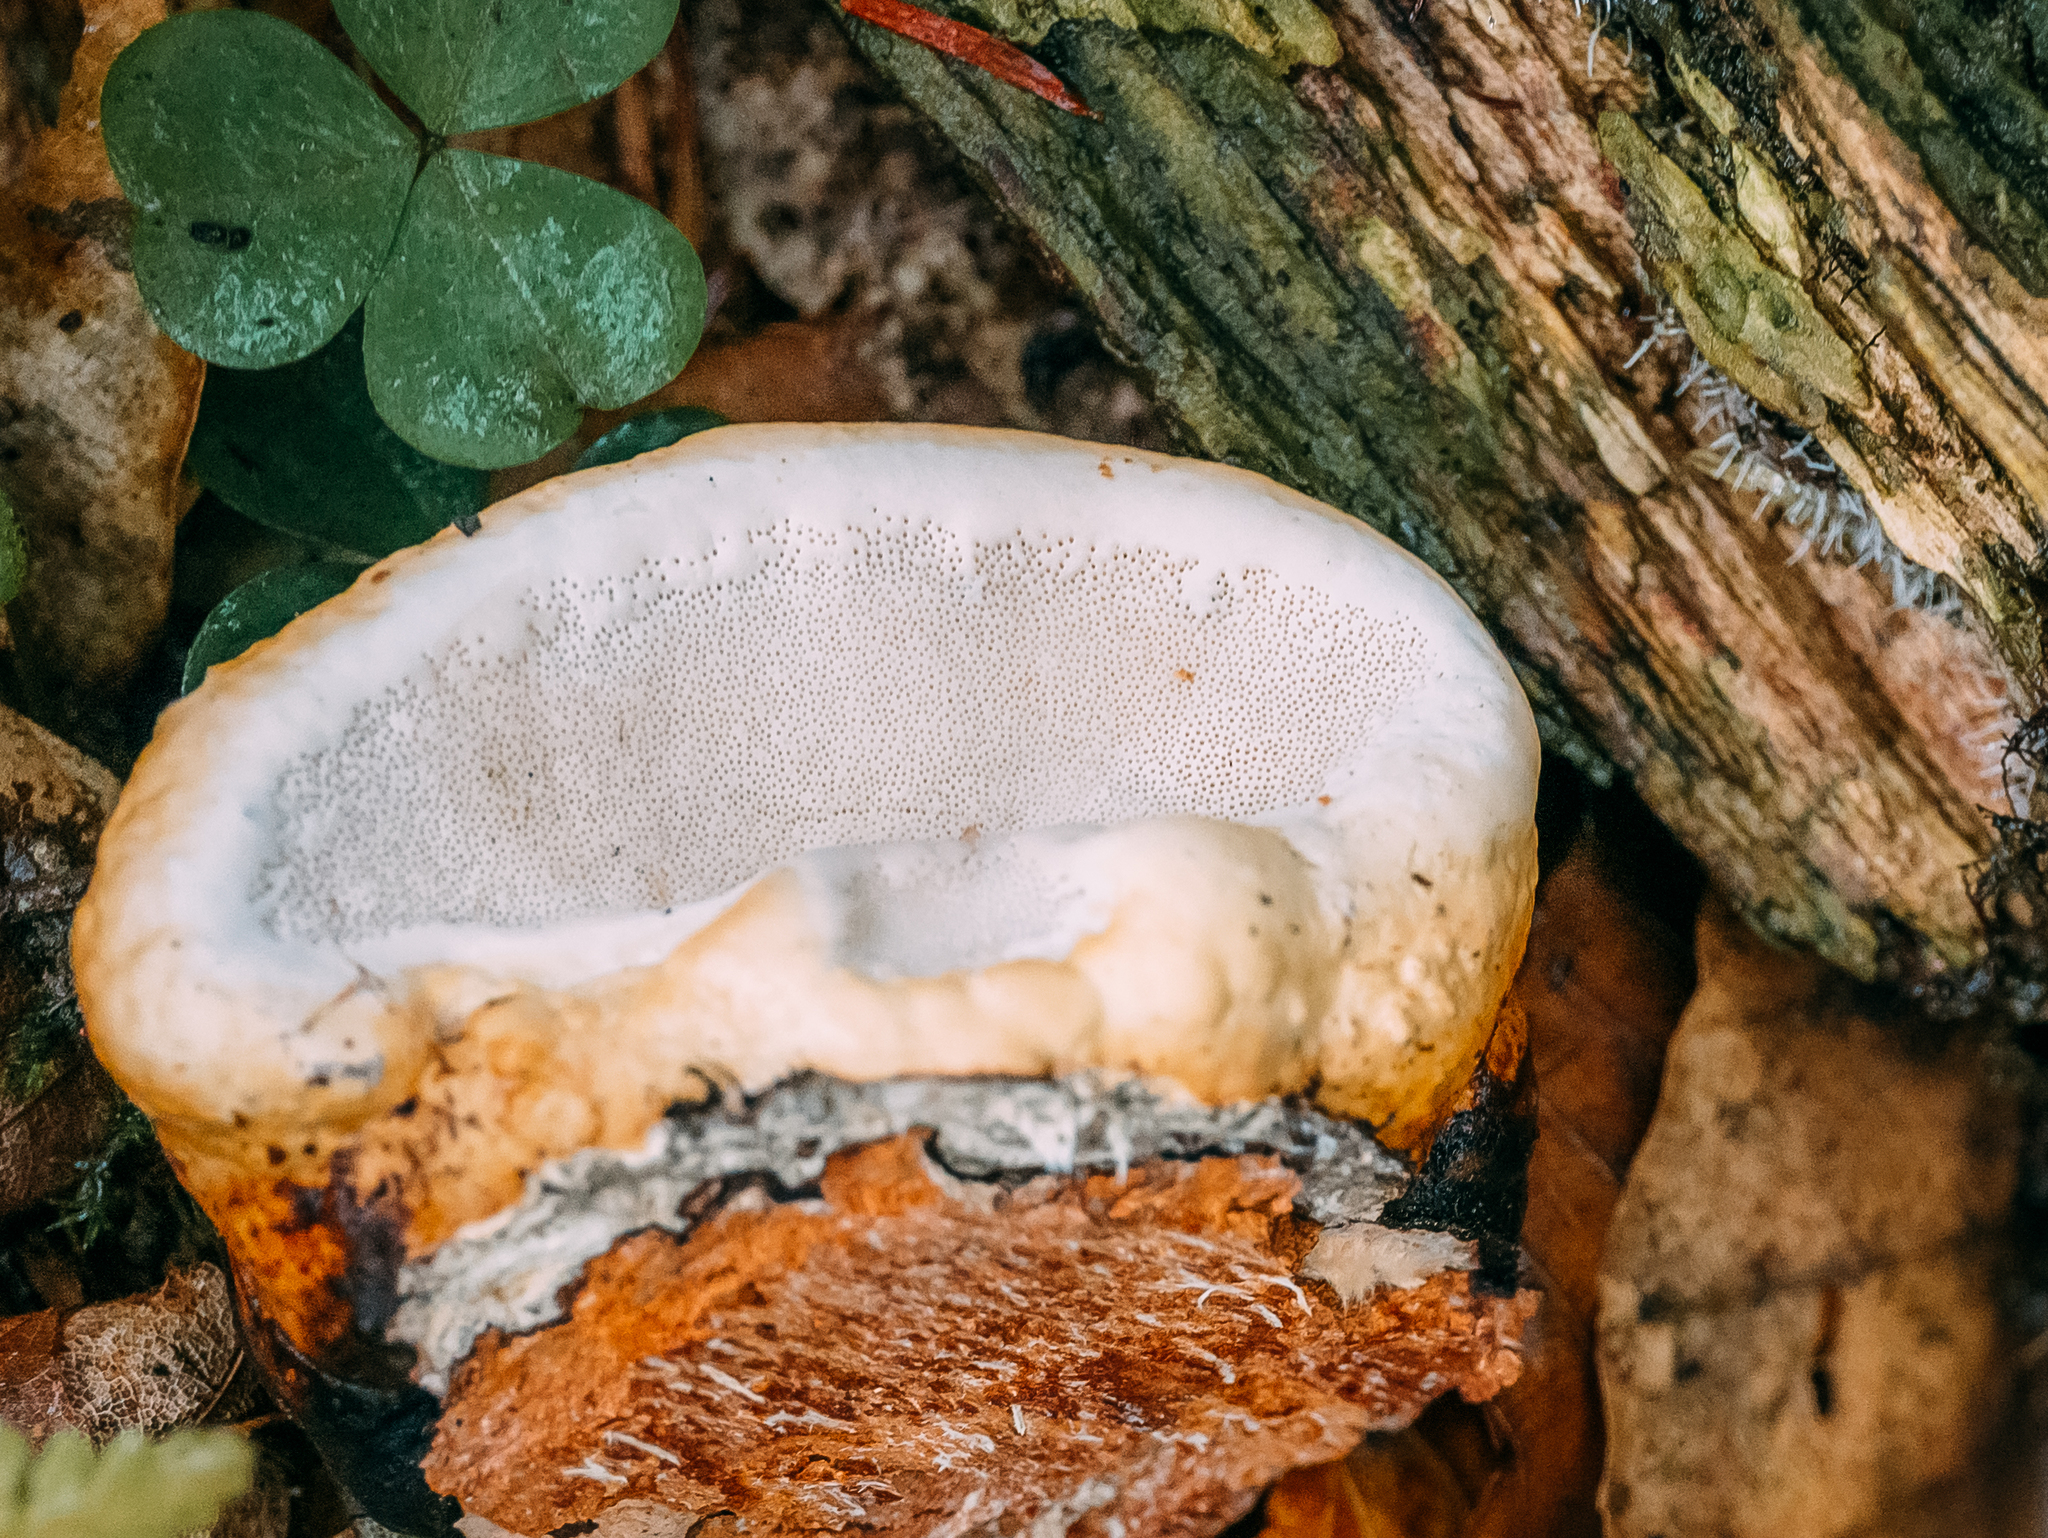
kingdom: Fungi
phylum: Basidiomycota
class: Agaricomycetes
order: Polyporales
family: Fomitopsidaceae
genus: Fomitopsis
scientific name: Fomitopsis pinicola
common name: Red-belted bracket
